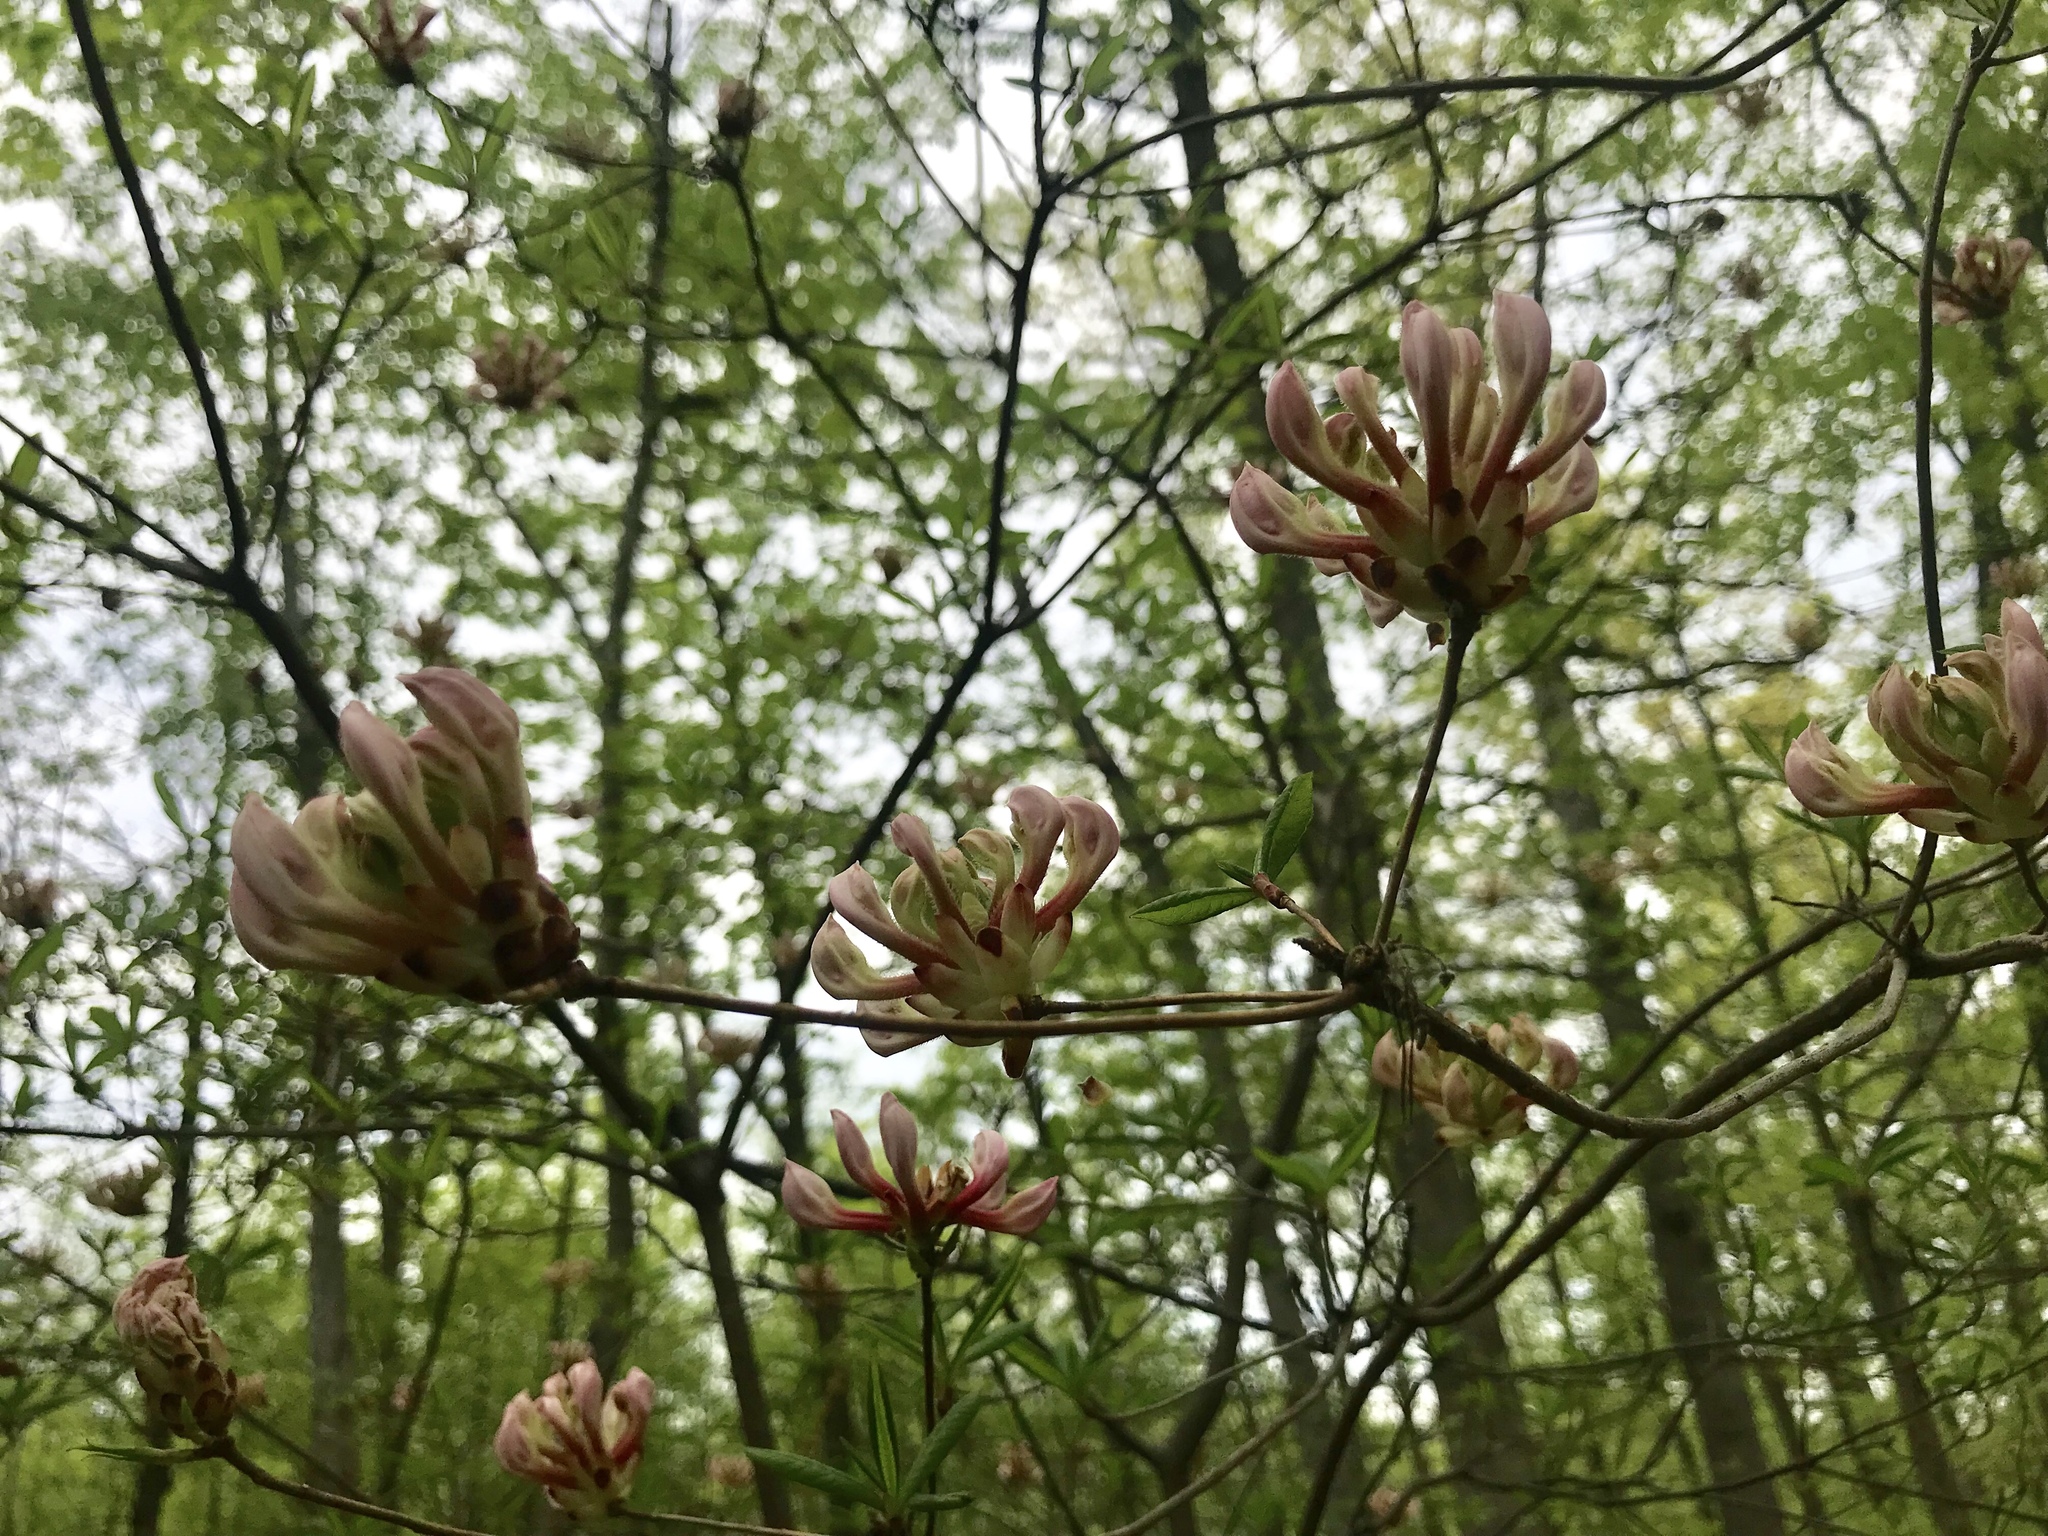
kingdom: Plantae
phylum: Tracheophyta
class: Magnoliopsida
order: Ericales
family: Ericaceae
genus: Rhododendron
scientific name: Rhododendron periclymenoides
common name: Election-pink
